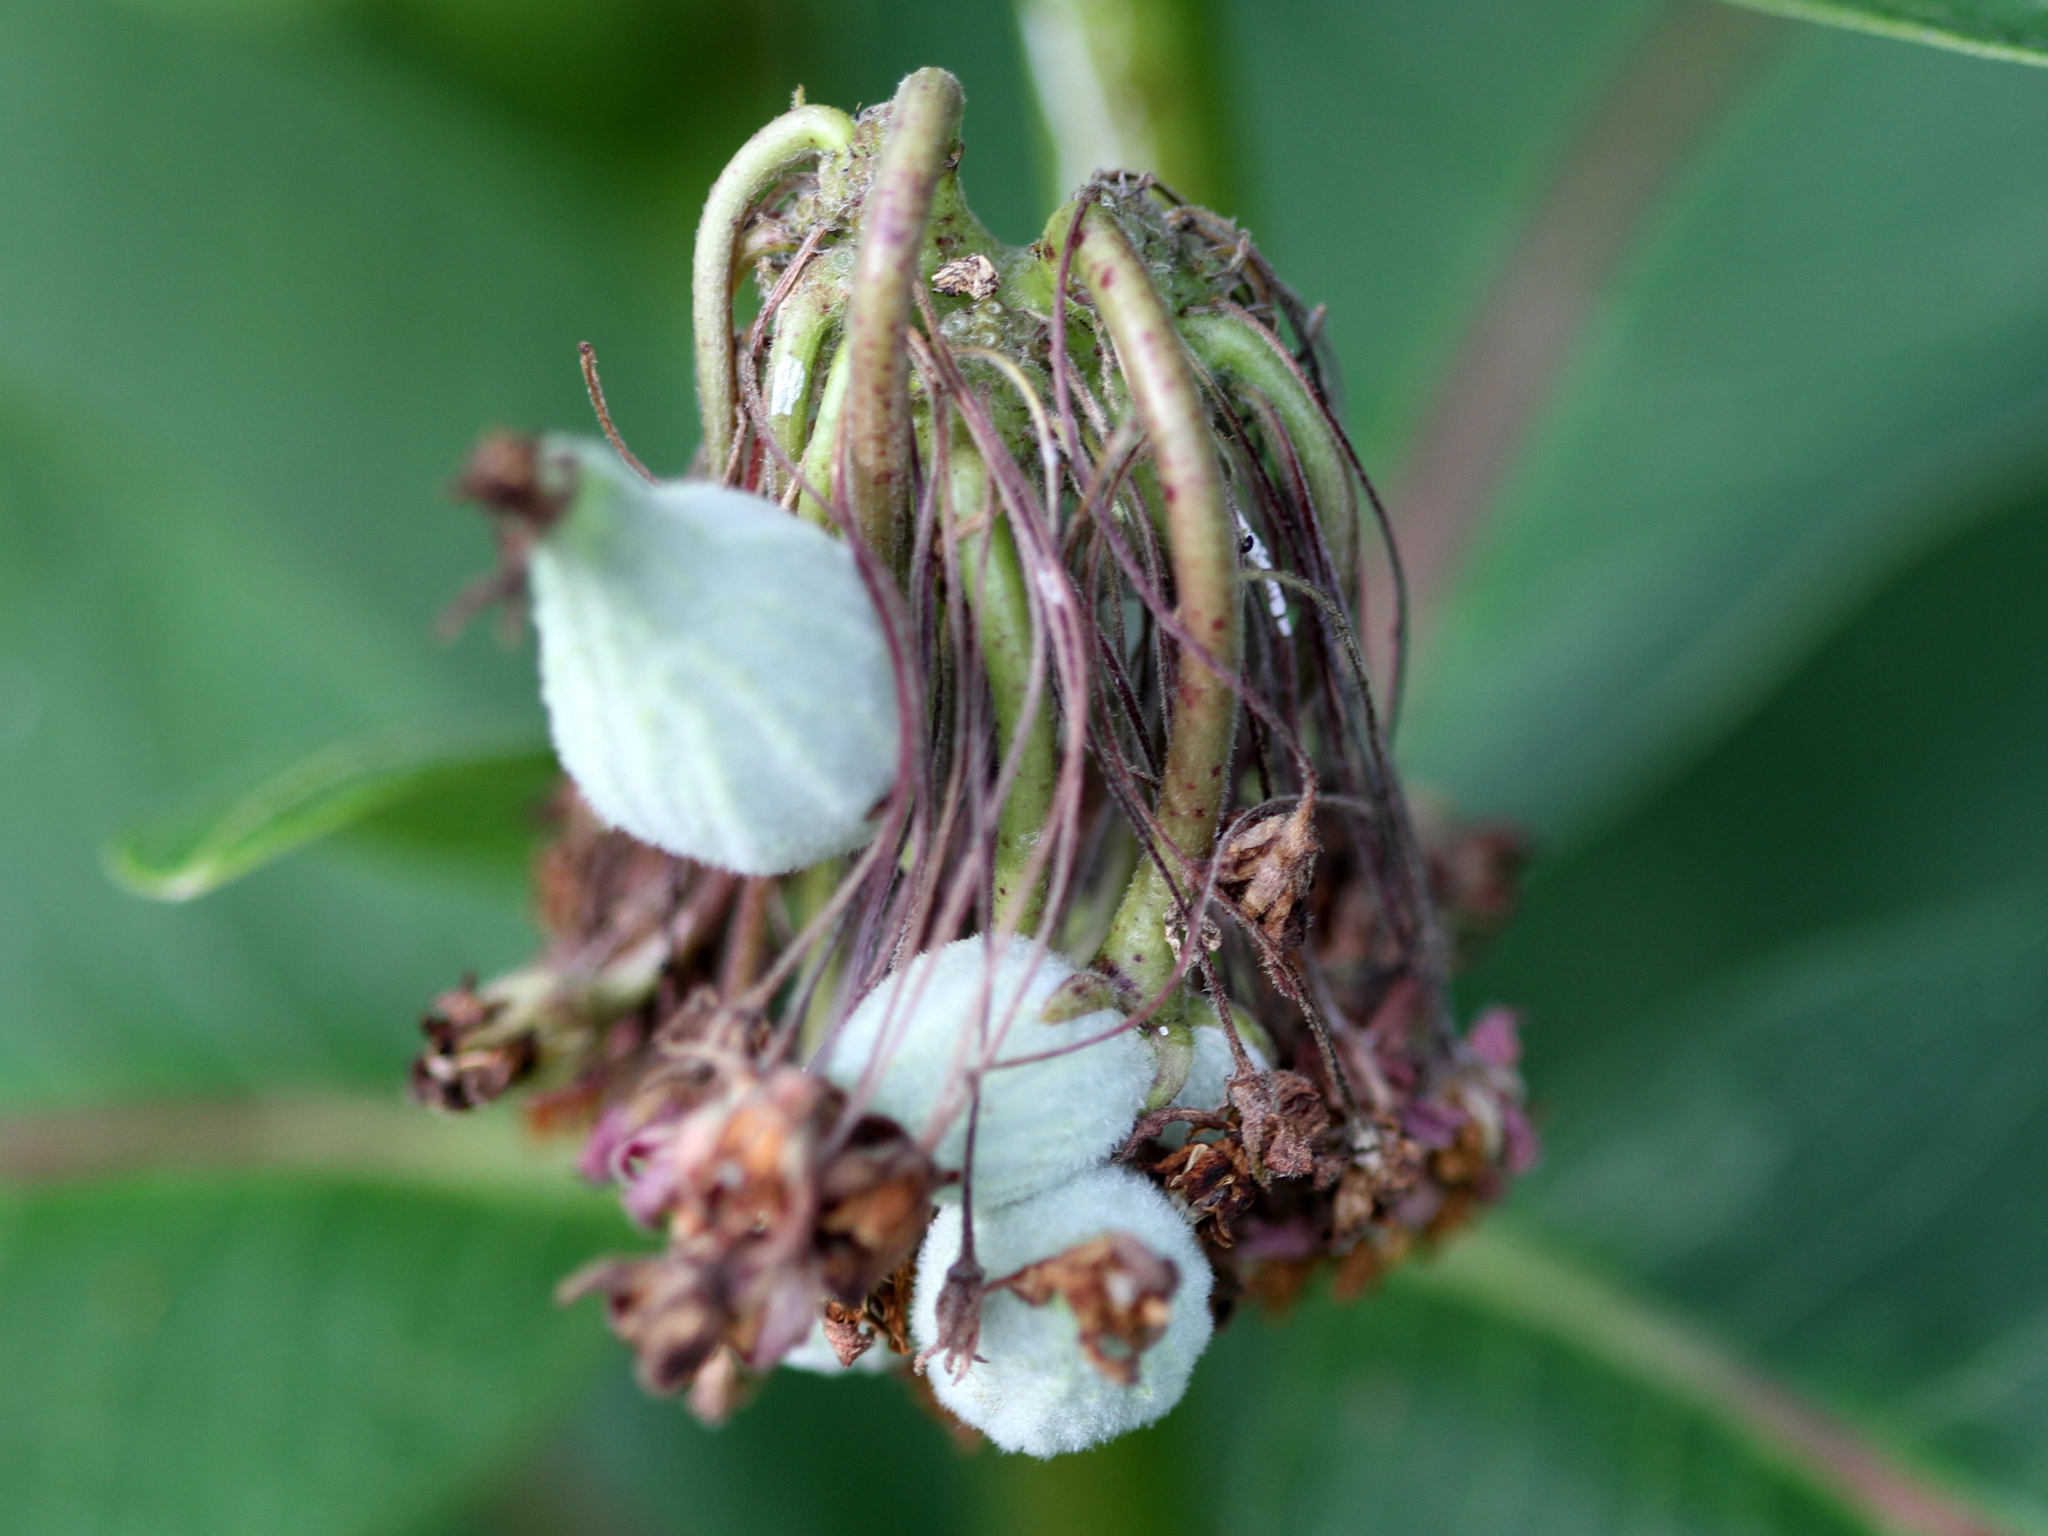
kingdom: Plantae
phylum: Tracheophyta
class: Magnoliopsida
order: Gentianales
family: Apocynaceae
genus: Asclepias
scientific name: Asclepias syriaca
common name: Common milkweed
